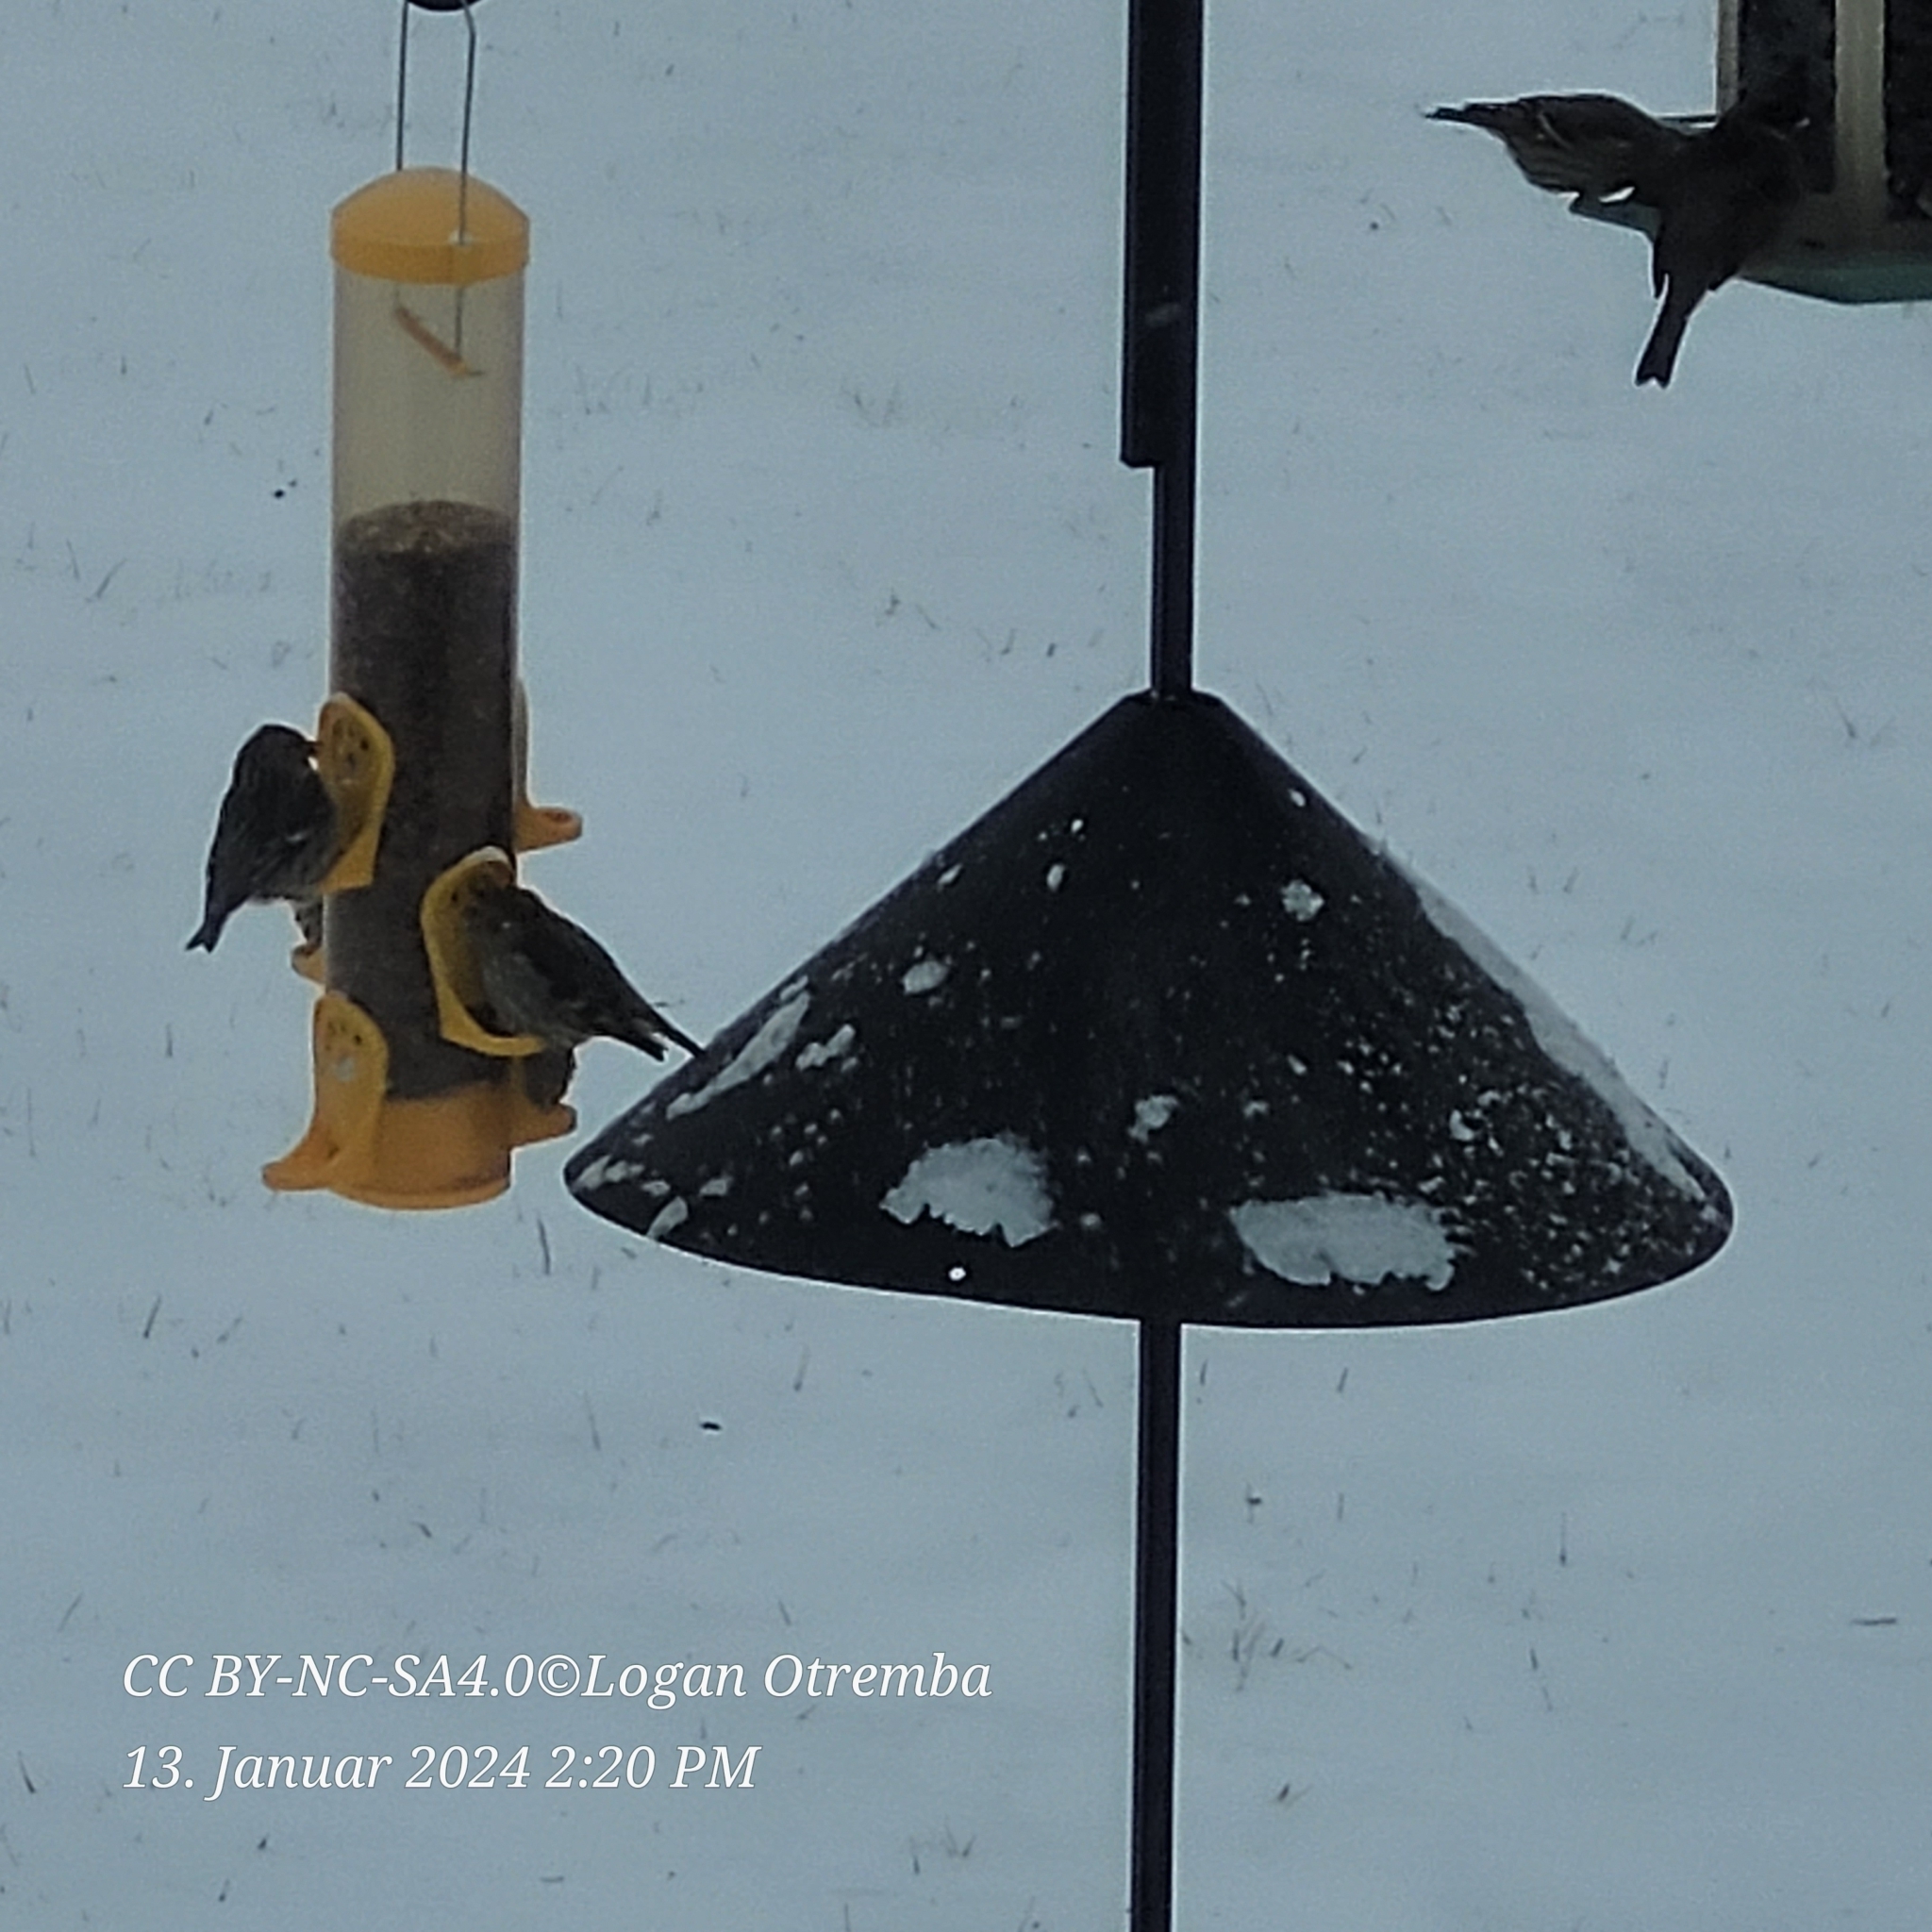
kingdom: Animalia
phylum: Chordata
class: Aves
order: Passeriformes
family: Fringillidae
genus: Spinus
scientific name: Spinus pinus
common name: Pine siskin
